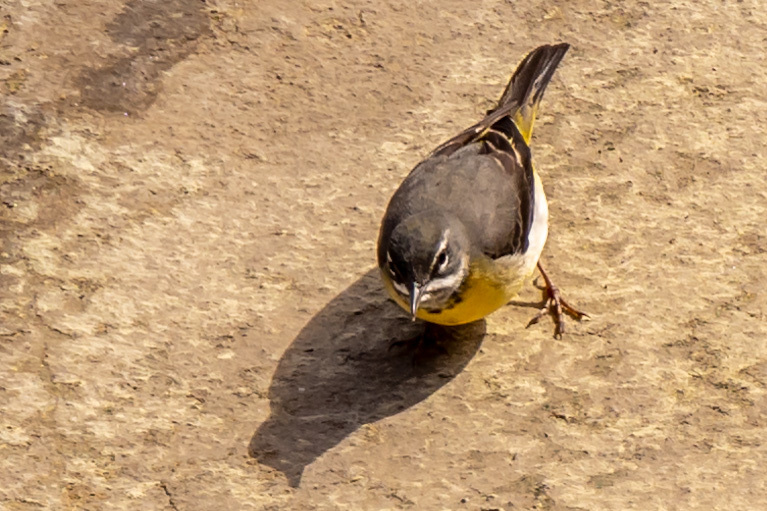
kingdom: Animalia
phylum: Chordata
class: Aves
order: Passeriformes
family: Motacillidae
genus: Motacilla
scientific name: Motacilla cinerea
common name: Grey wagtail
